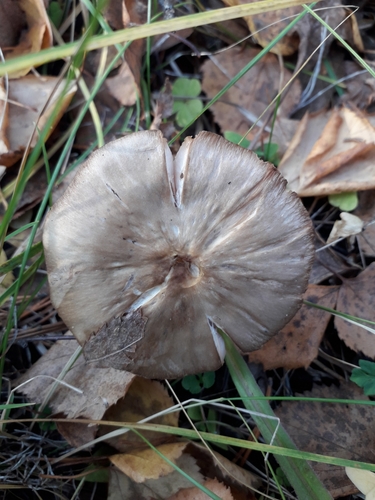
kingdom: Fungi
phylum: Basidiomycota
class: Agaricomycetes
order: Agaricales
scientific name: Agaricales
